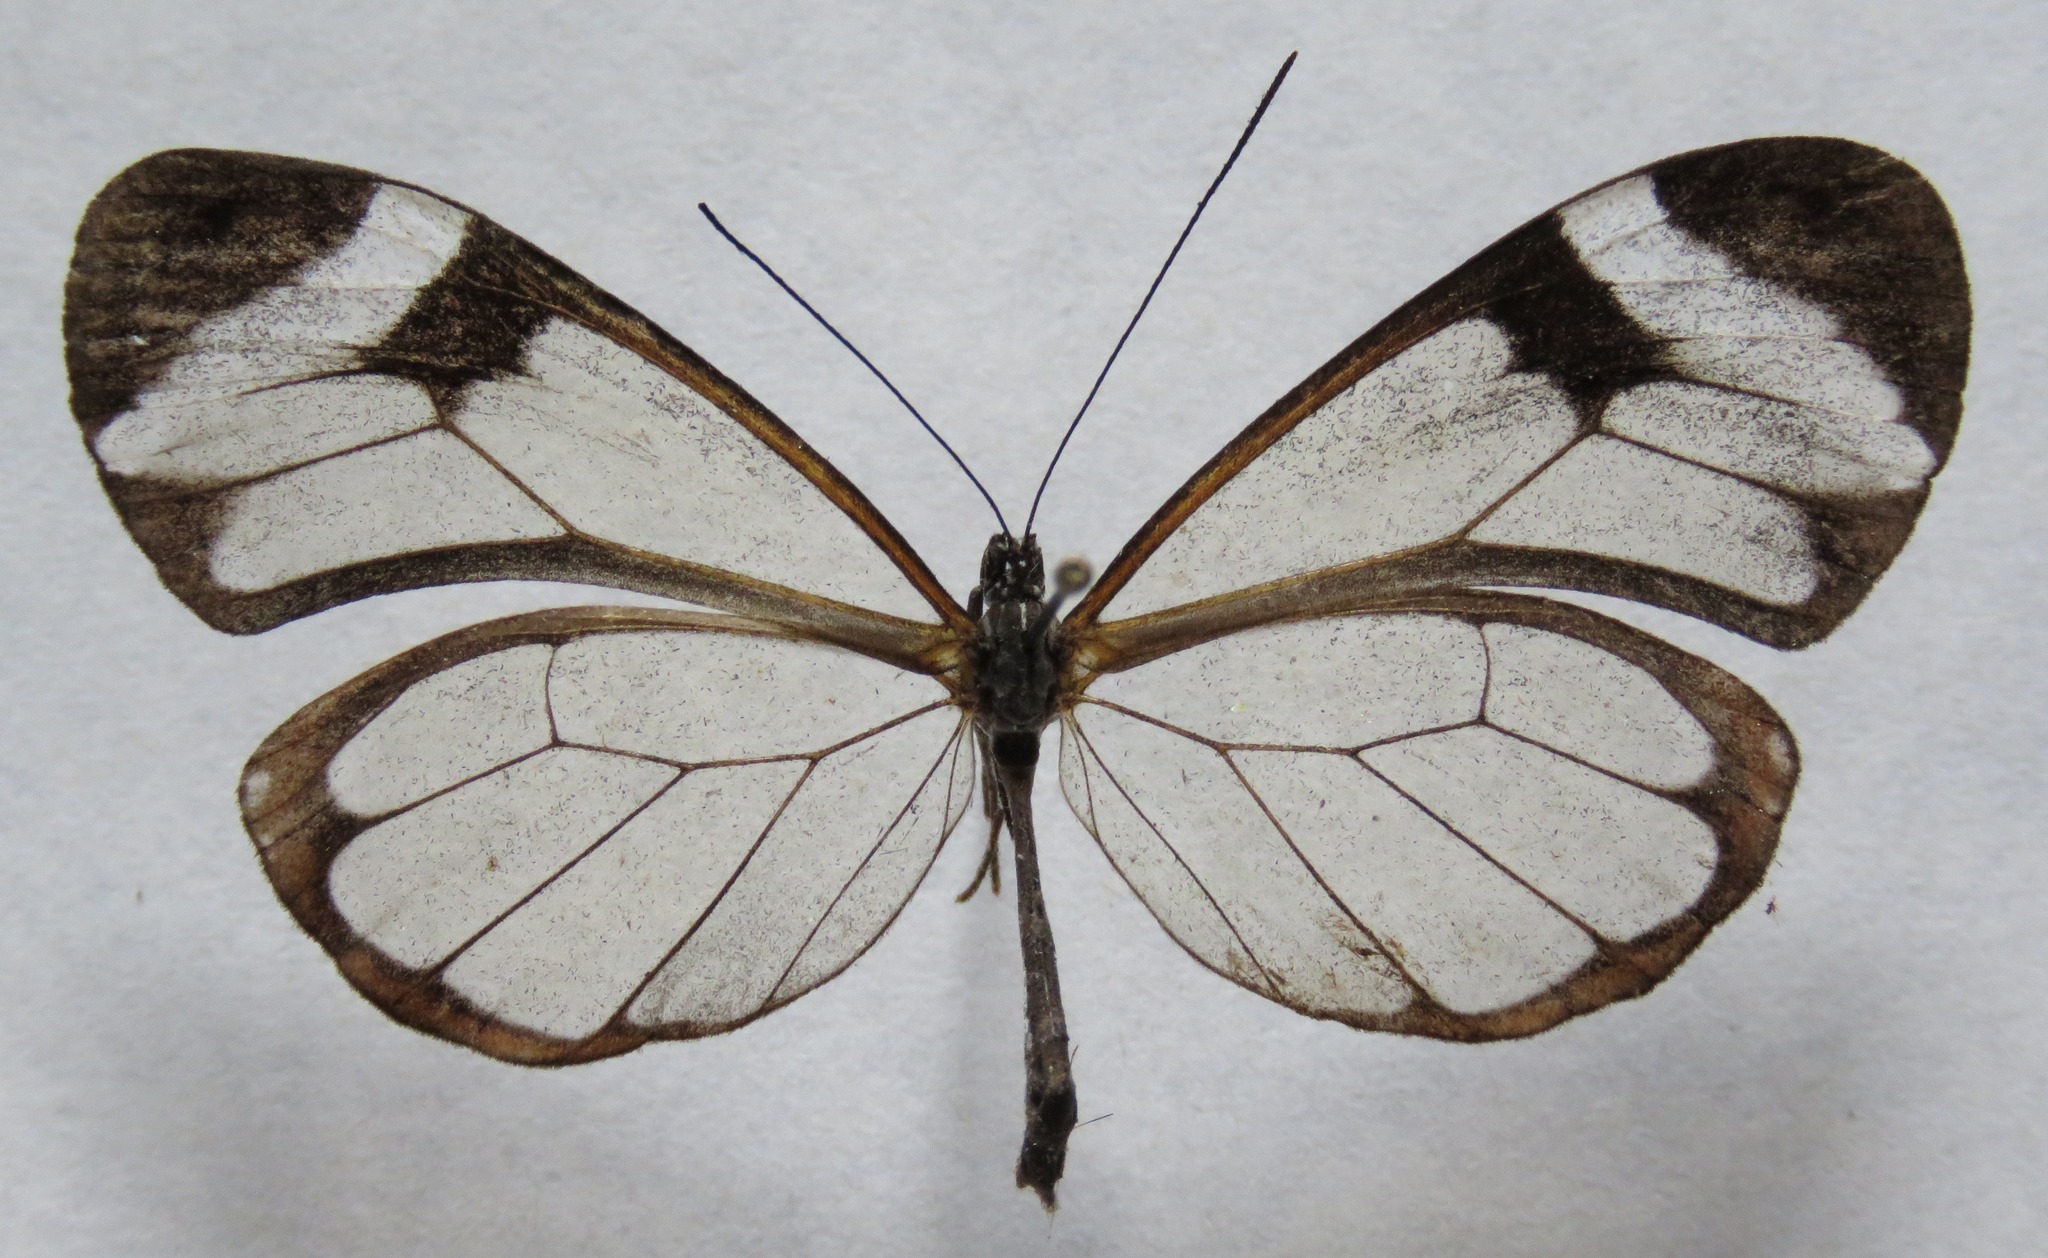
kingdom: Animalia
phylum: Arthropoda
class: Insecta
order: Lepidoptera
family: Nymphalidae
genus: Greta
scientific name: Greta morgane
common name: Thick-tipped greta
